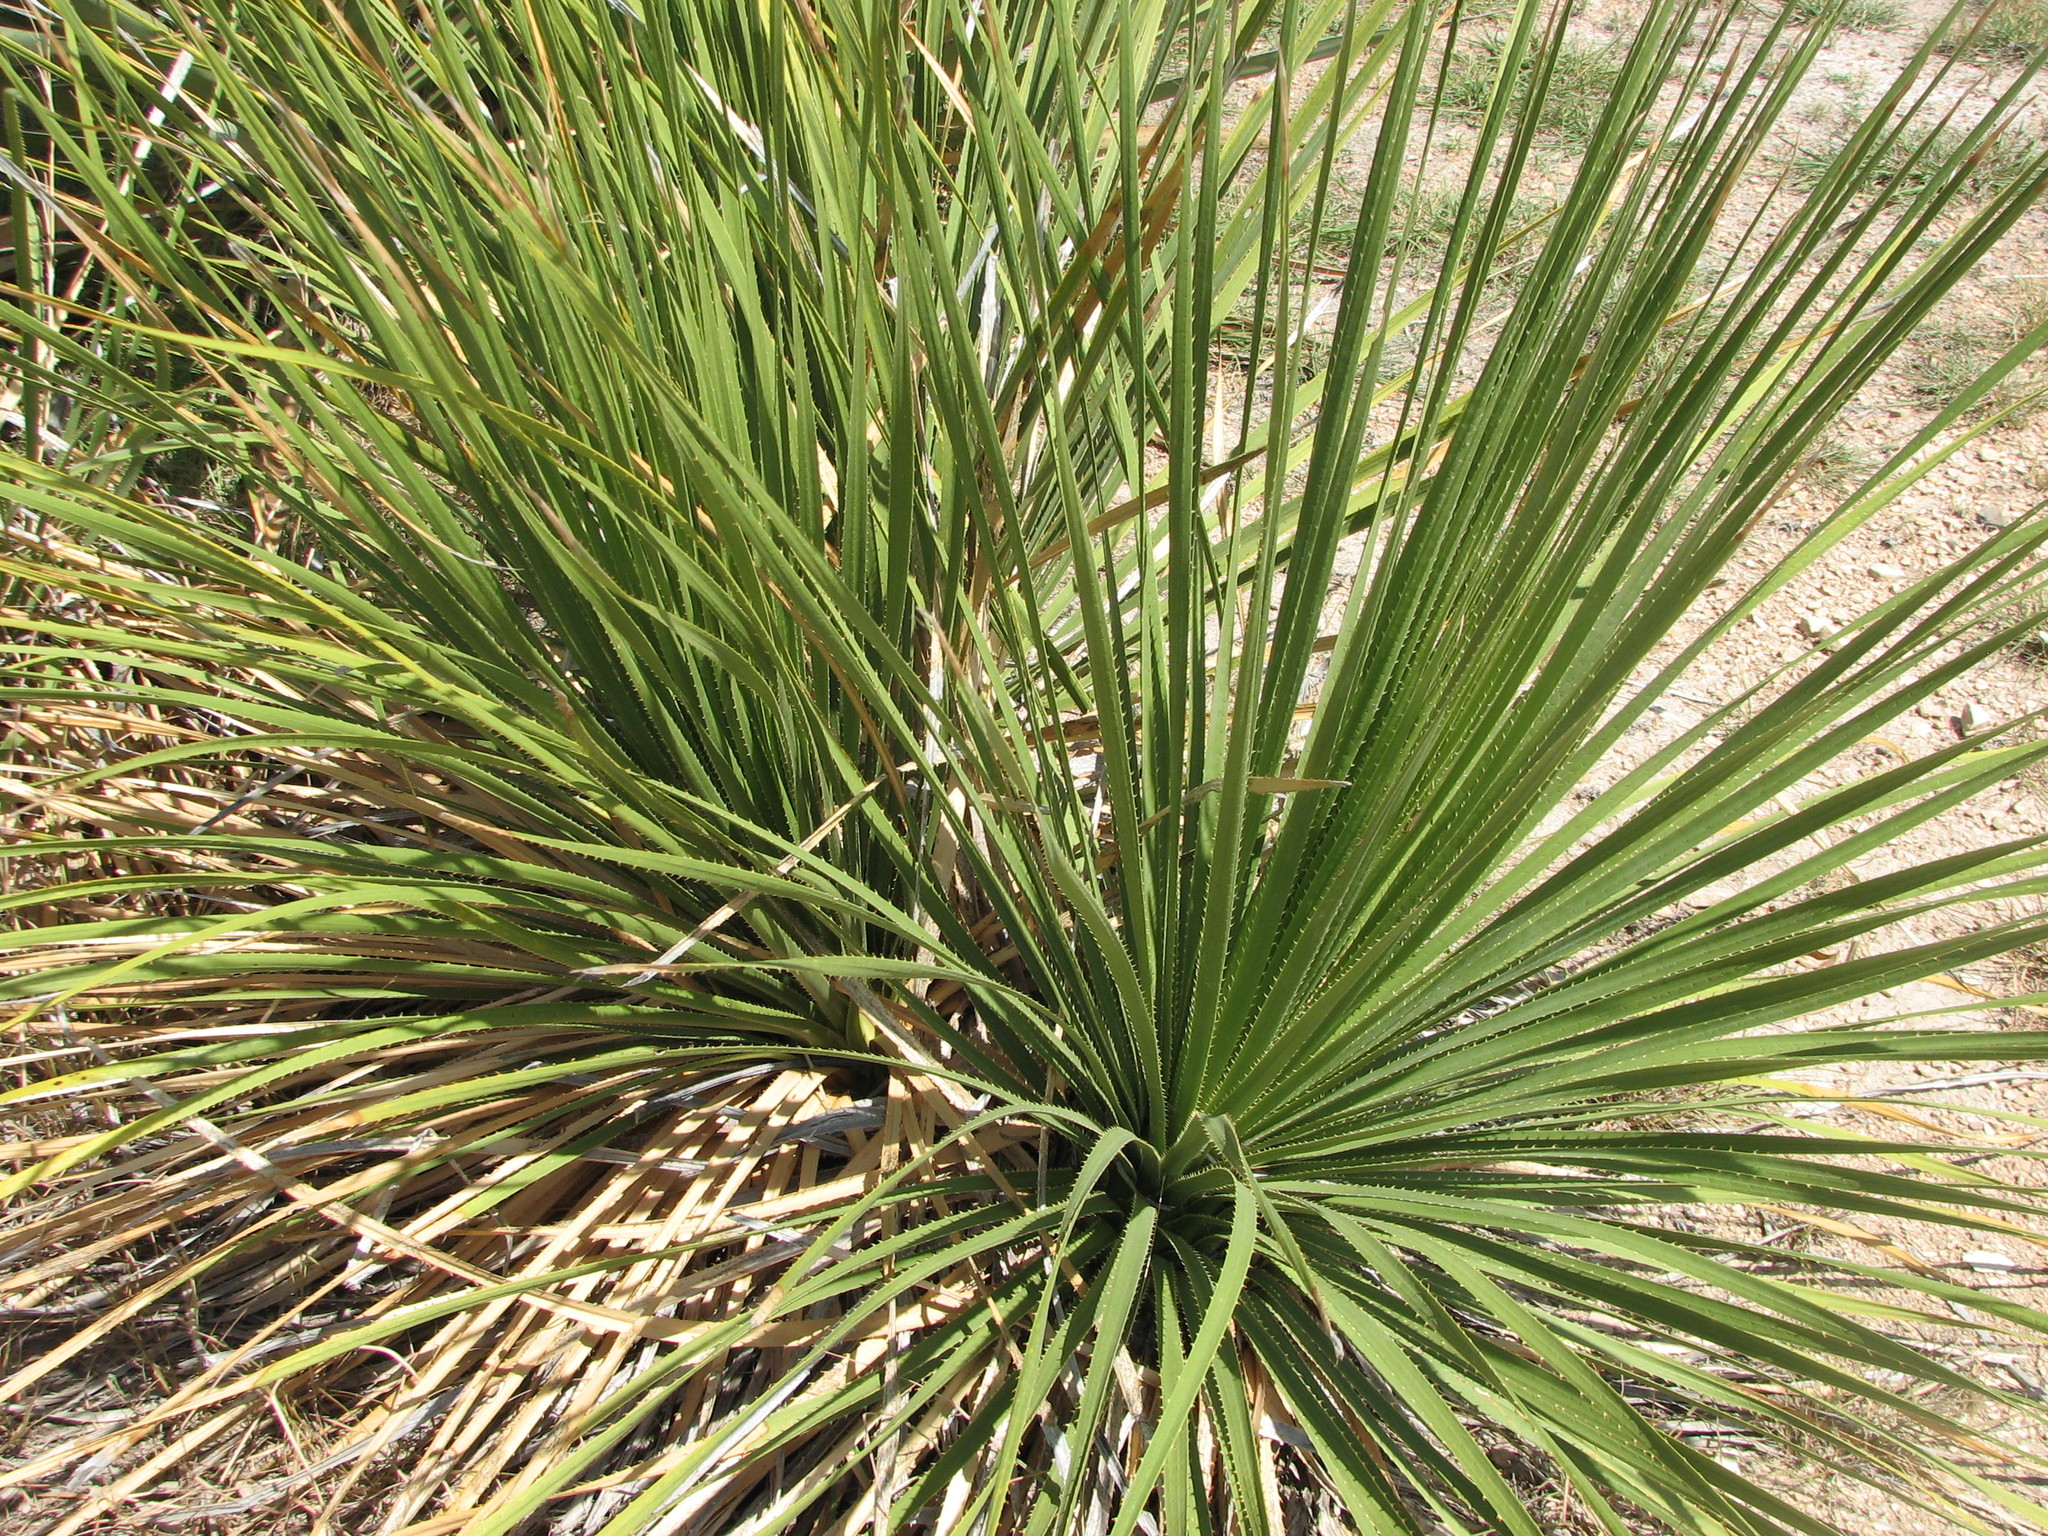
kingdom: Plantae
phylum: Tracheophyta
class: Liliopsida
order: Asparagales
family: Asparagaceae
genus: Dasylirion
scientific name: Dasylirion texanum
